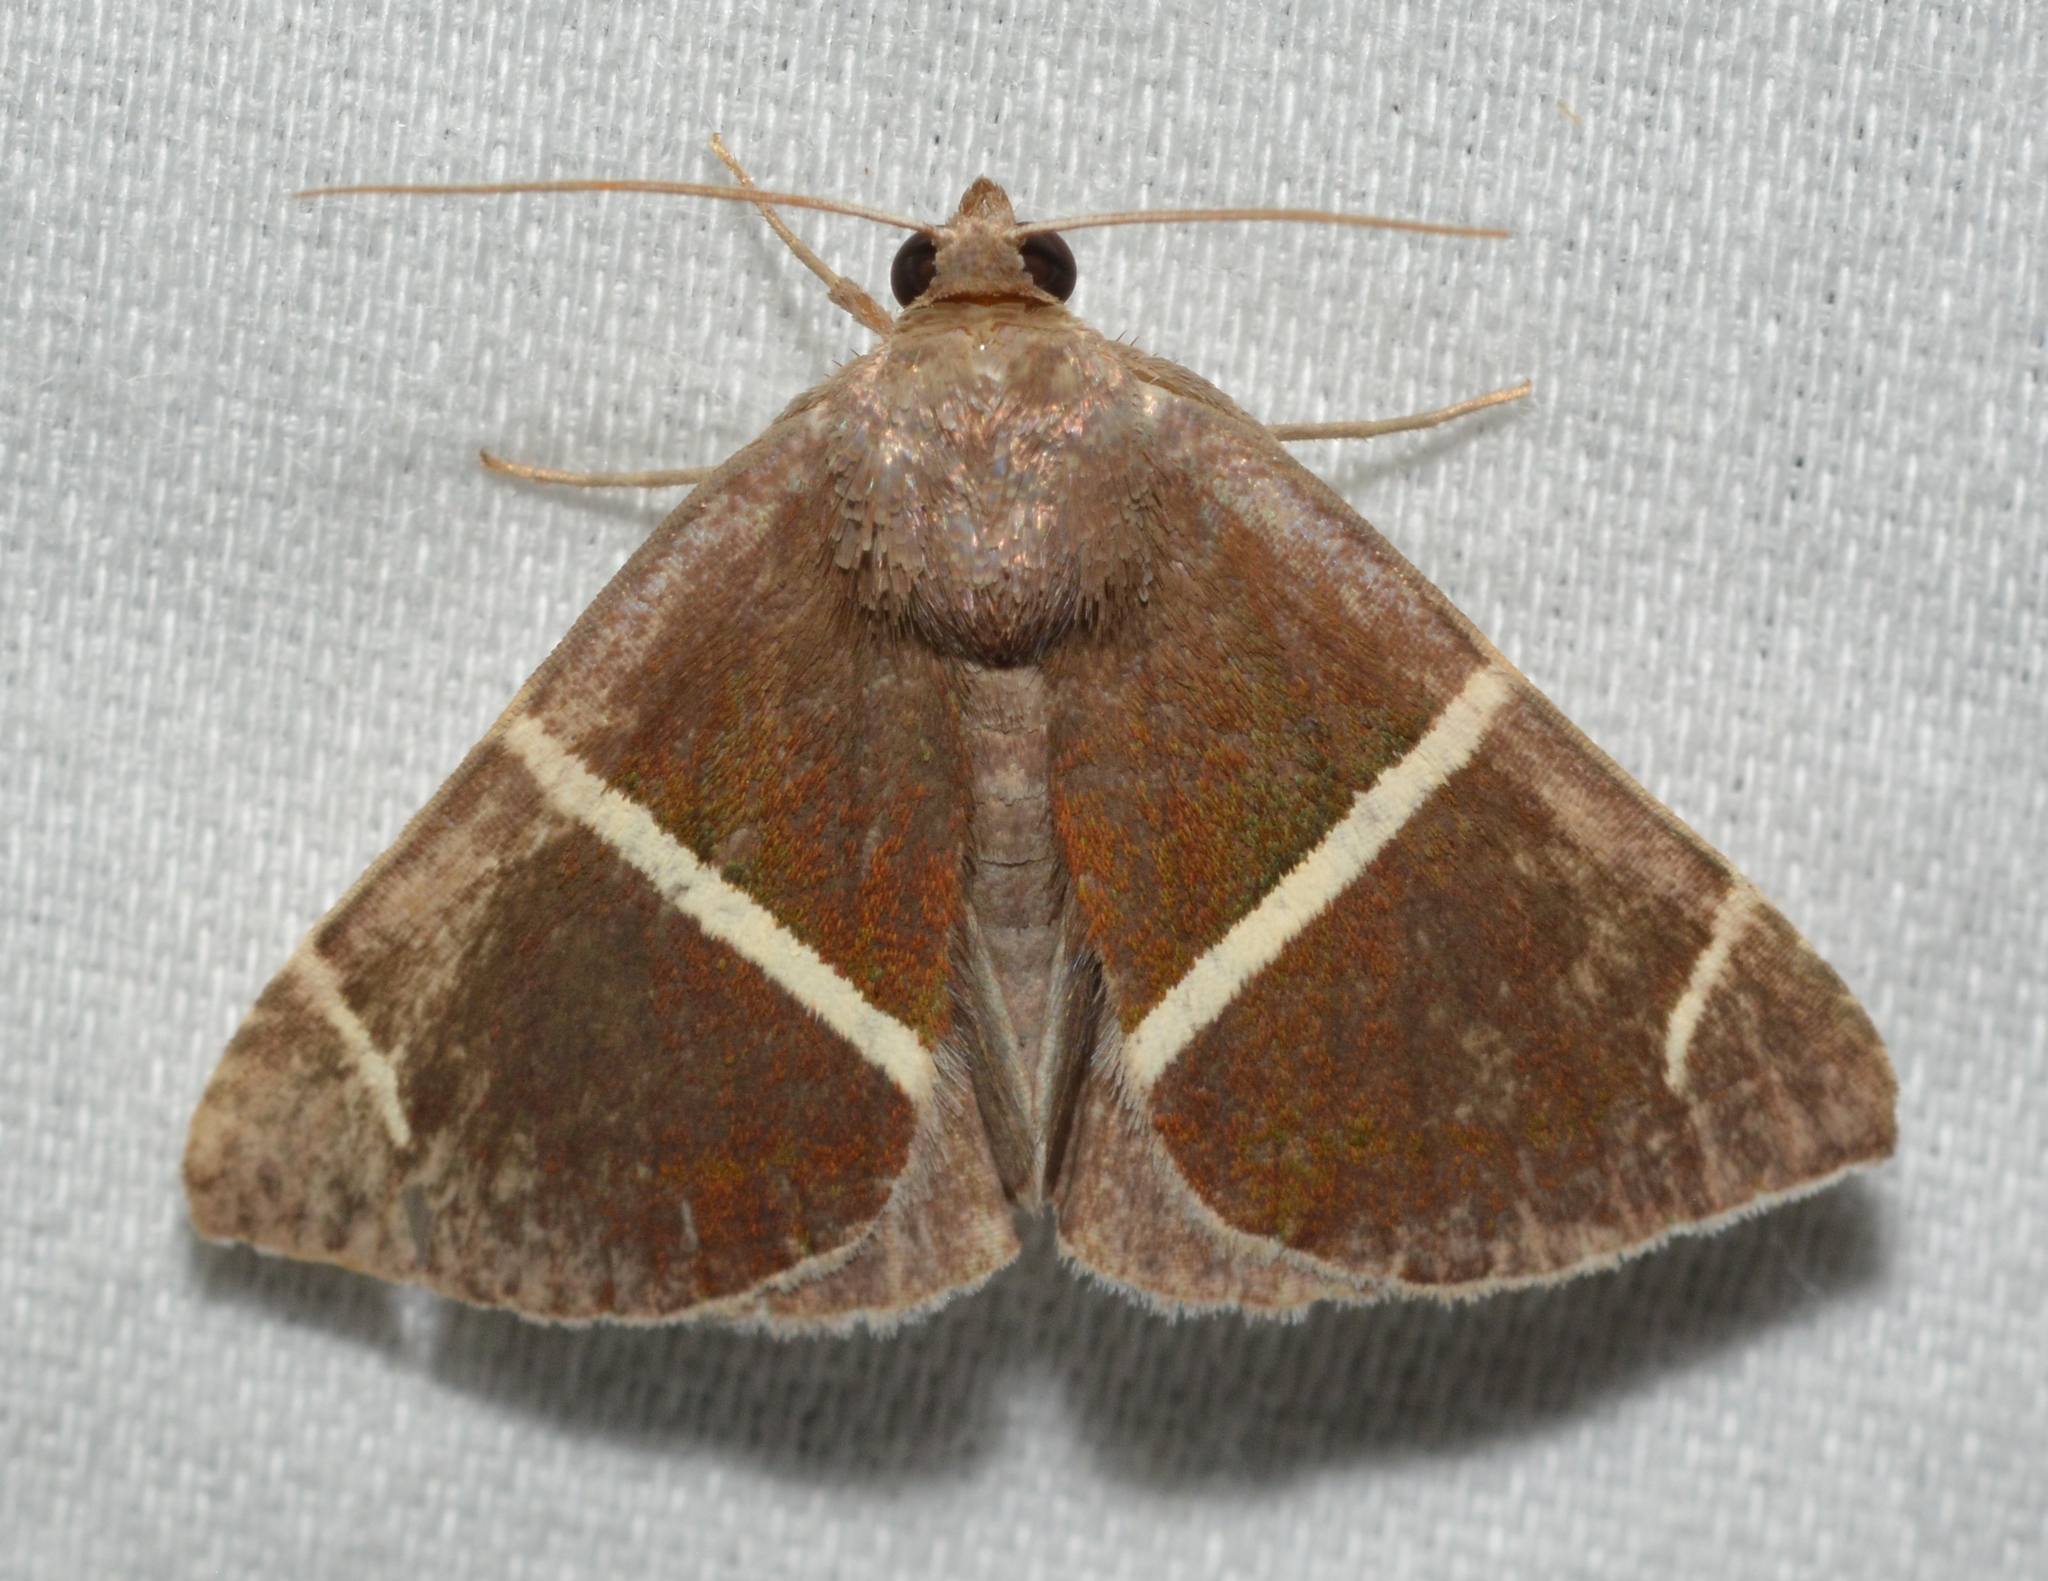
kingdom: Animalia
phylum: Arthropoda
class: Insecta
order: Lepidoptera
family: Erebidae
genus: Argyrostrotis
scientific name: Argyrostrotis anilis
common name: Short-lined chocolate
